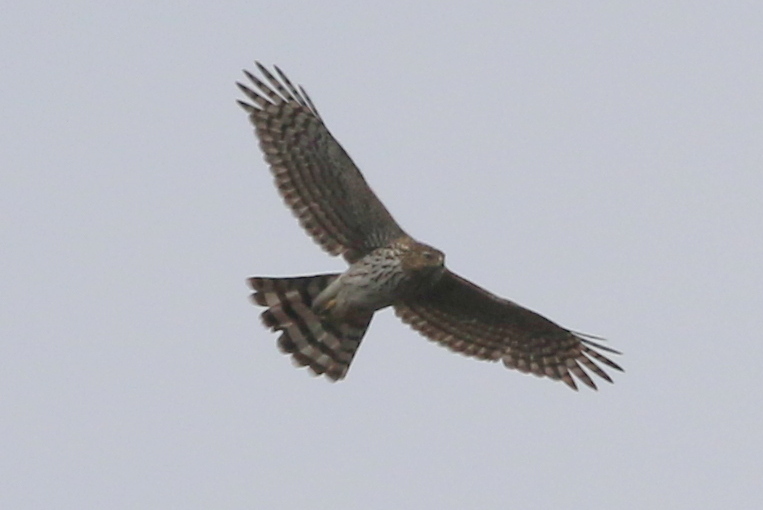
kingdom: Animalia
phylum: Chordata
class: Aves
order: Accipitriformes
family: Accipitridae
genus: Accipiter
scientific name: Accipiter cooperii
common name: Cooper's hawk
